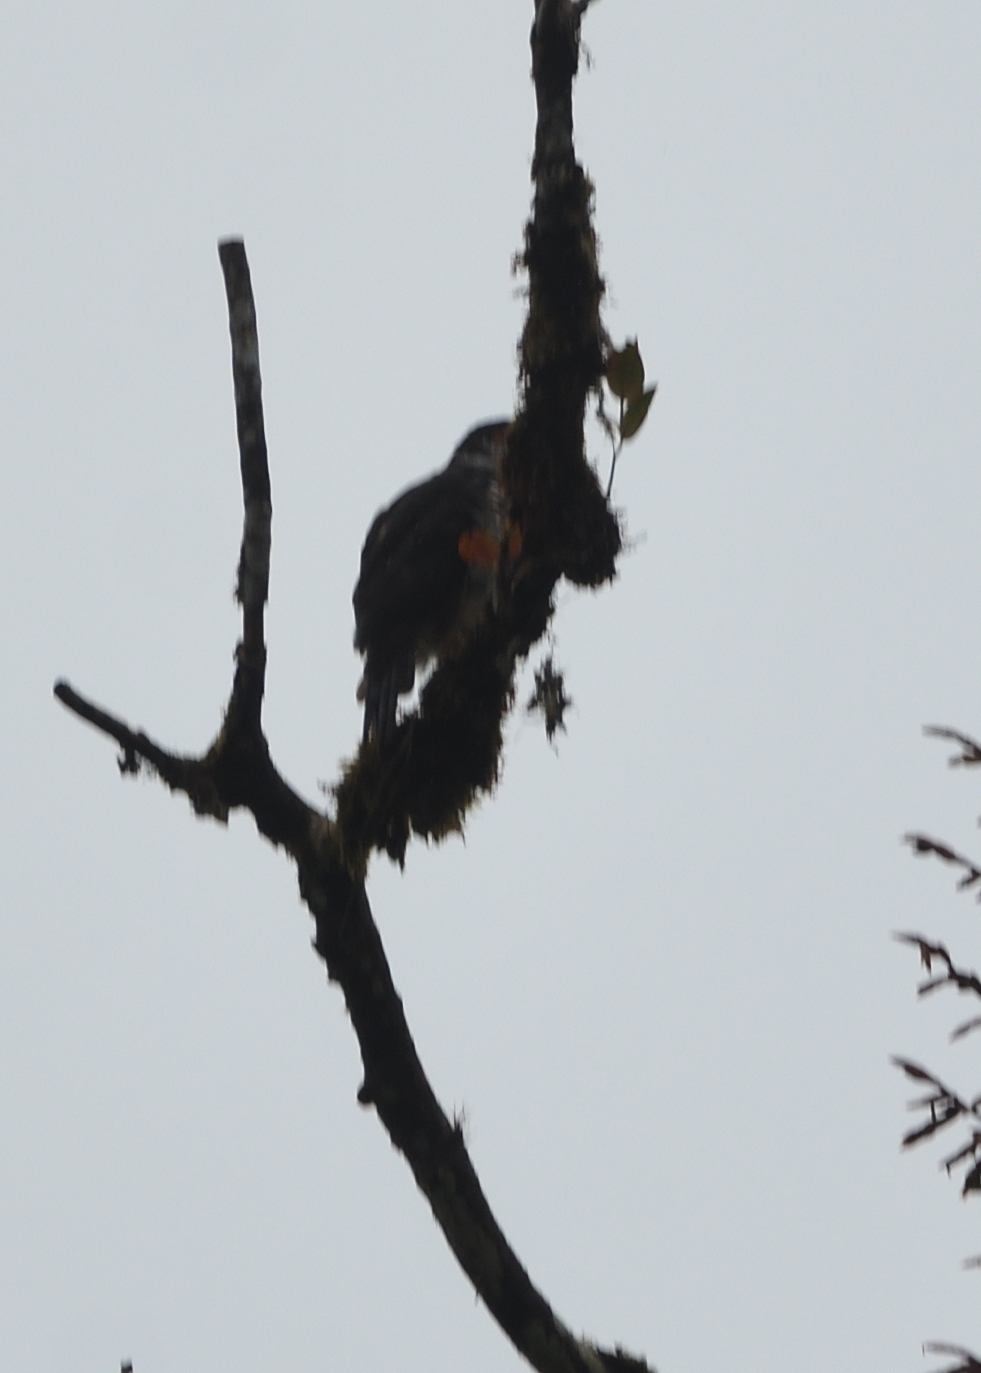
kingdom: Animalia
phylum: Chordata
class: Aves
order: Accipitriformes
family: Accipitridae
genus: Accipiter
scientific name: Accipiter collaris
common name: Semicollared hawk
